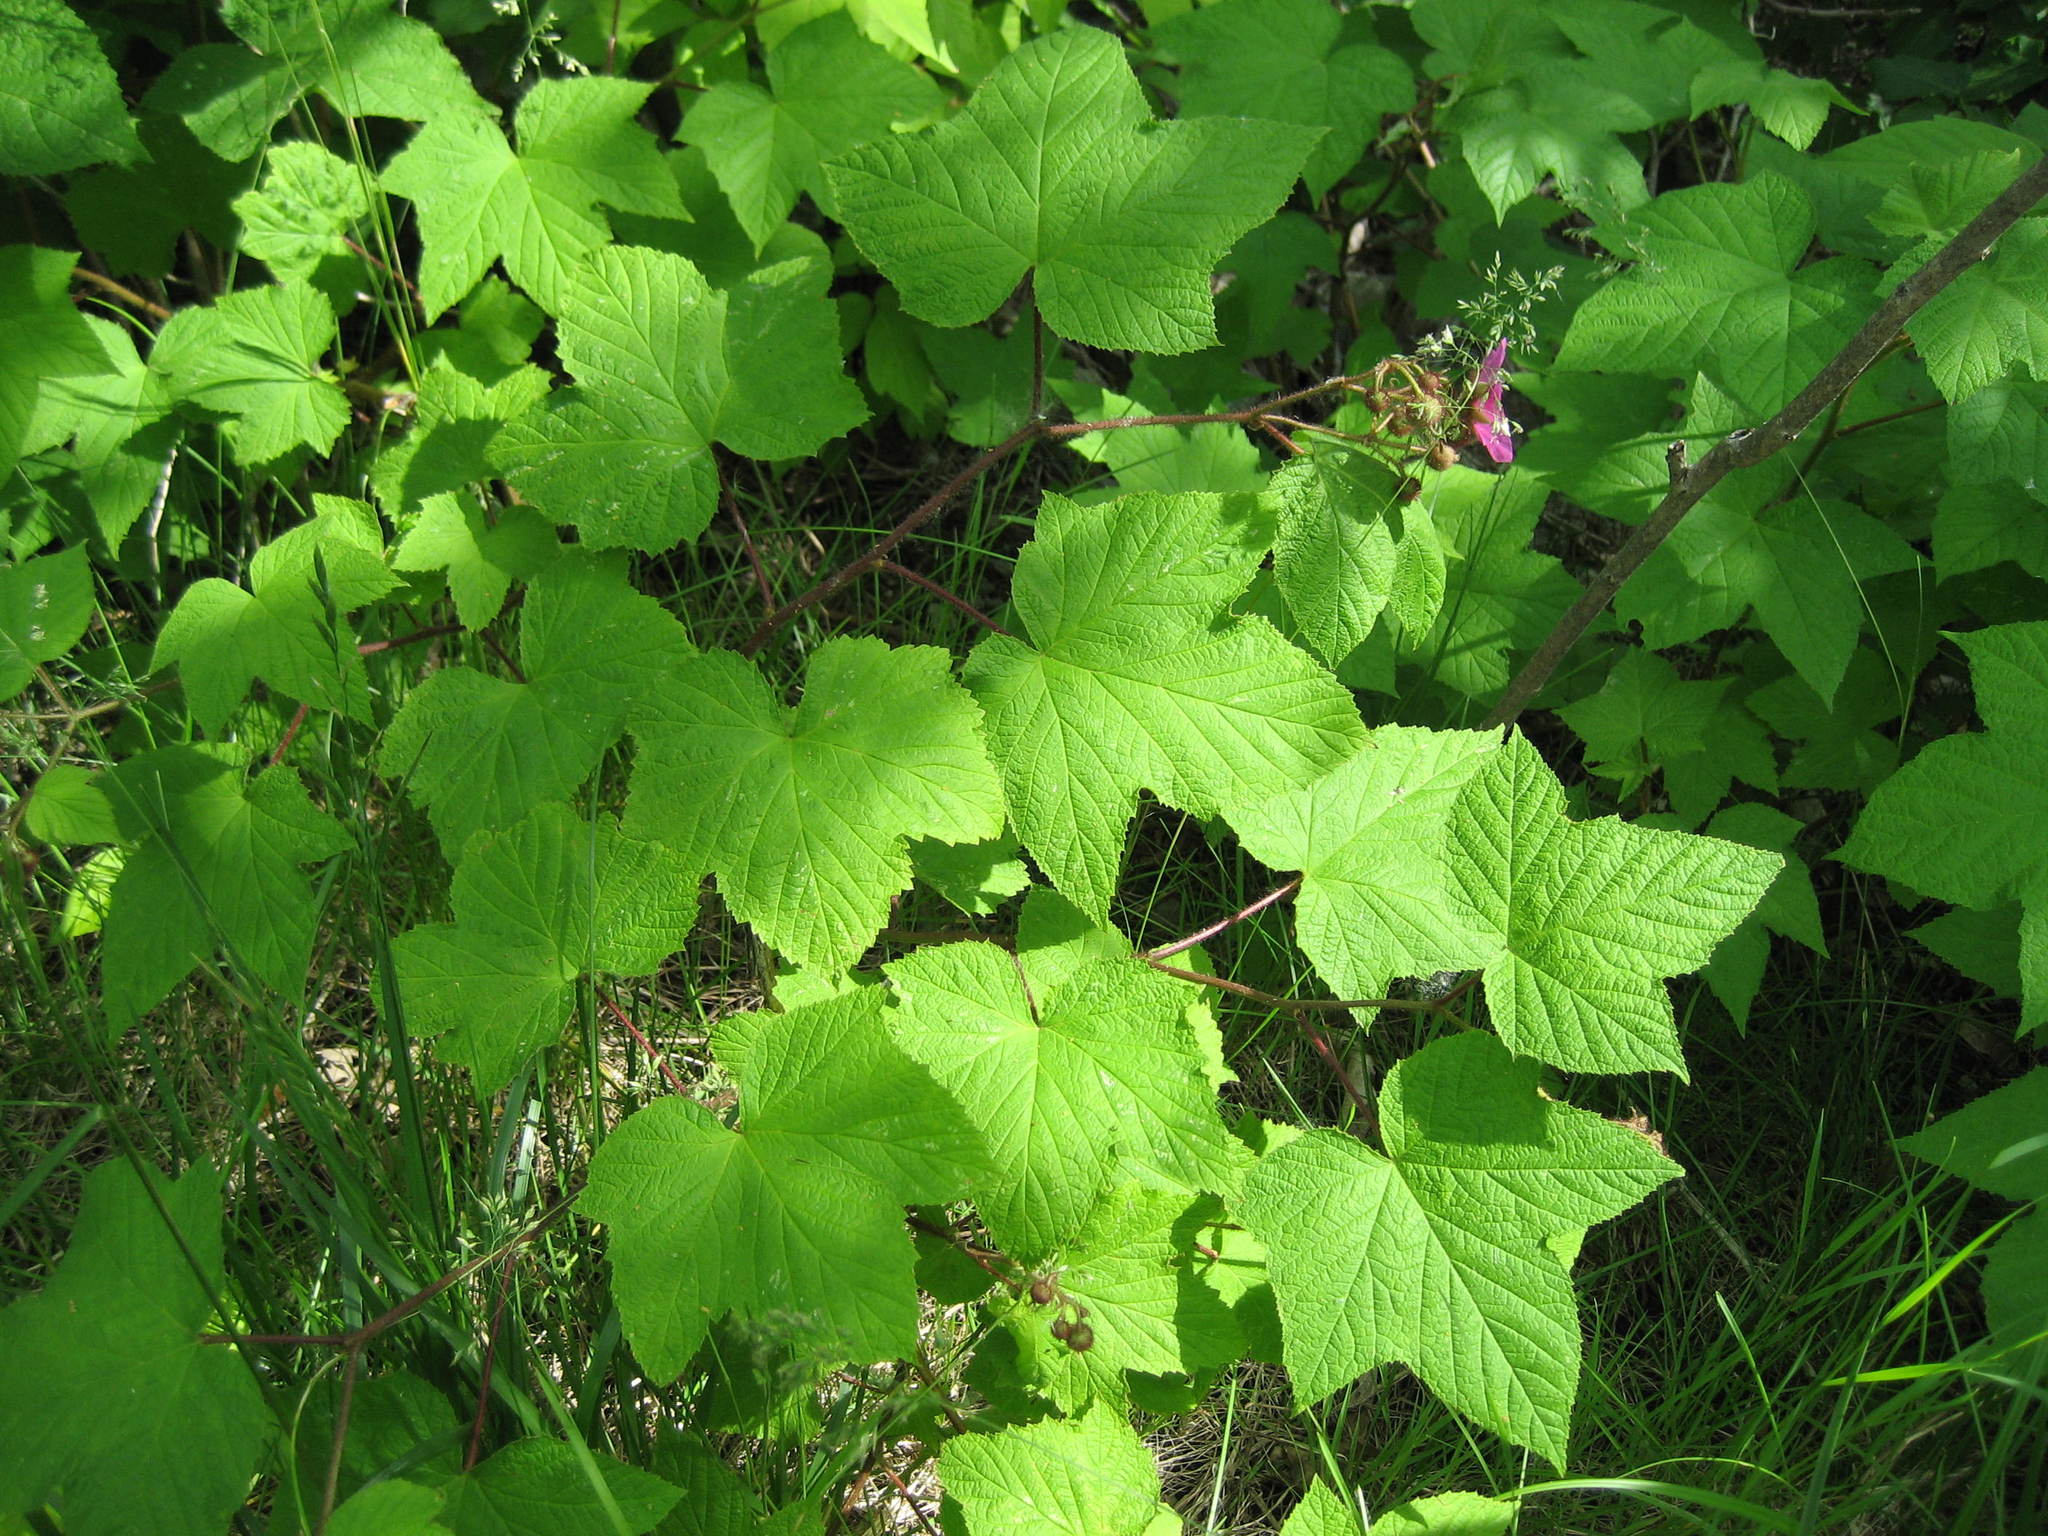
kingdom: Plantae
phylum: Tracheophyta
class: Magnoliopsida
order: Rosales
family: Rosaceae
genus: Rubus
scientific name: Rubus odoratus
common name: Purple-flowered raspberry
